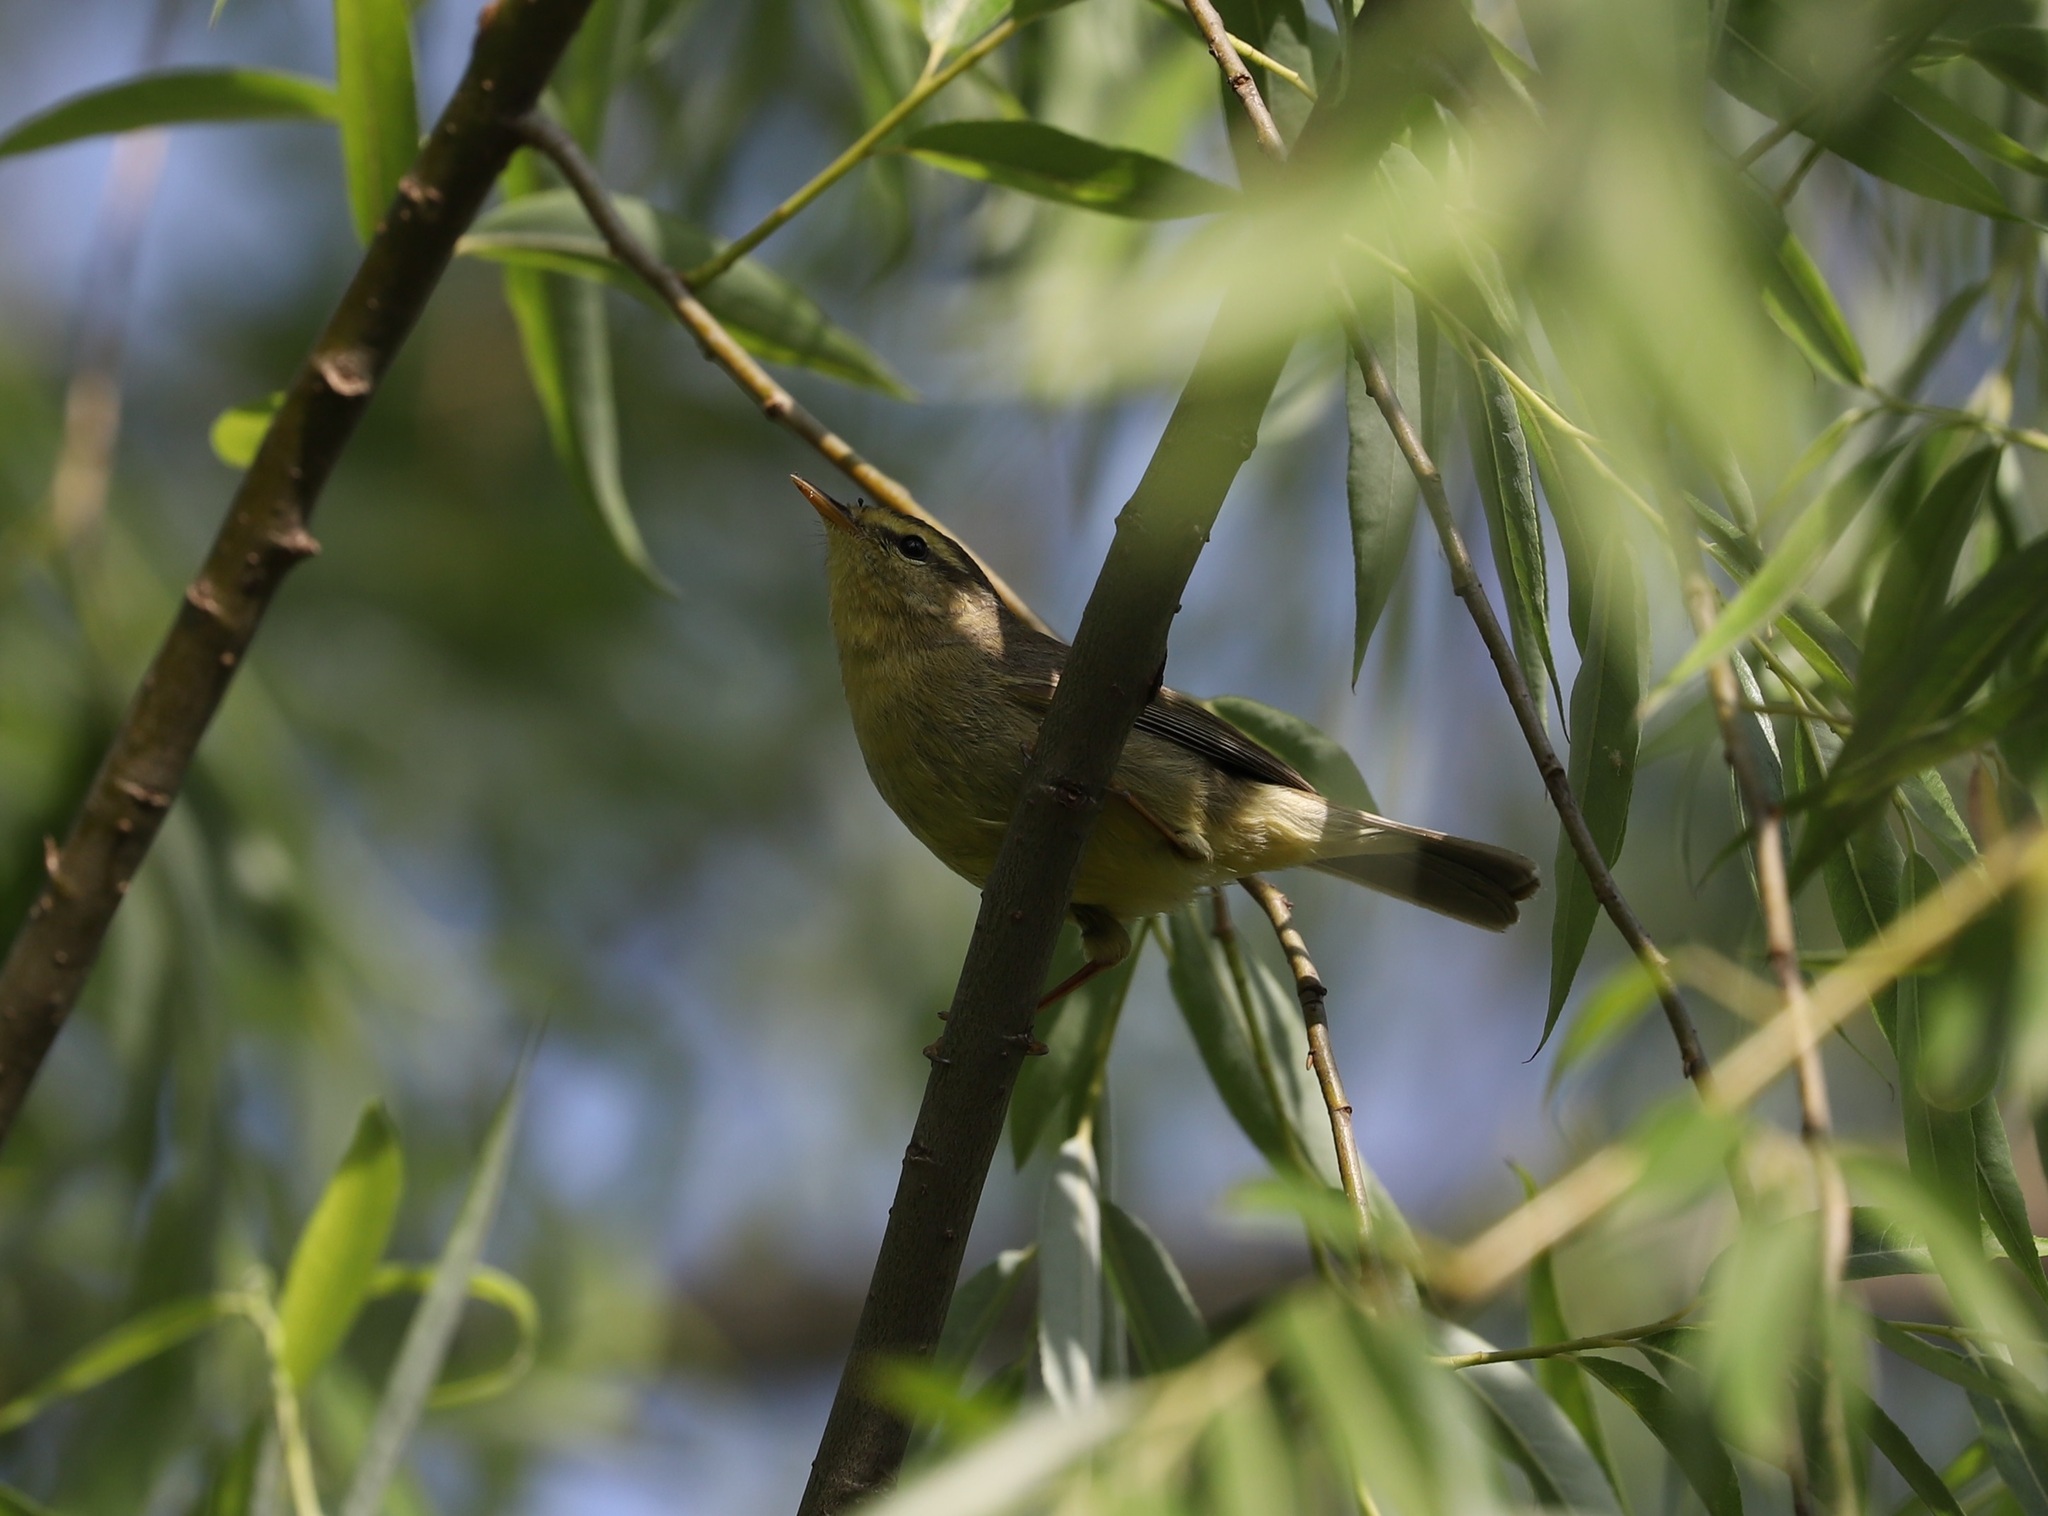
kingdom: Animalia
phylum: Chordata
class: Aves
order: Passeriformes
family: Phylloscopidae
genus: Phylloscopus
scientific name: Phylloscopus affinis
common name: Tickell's leaf warbler
